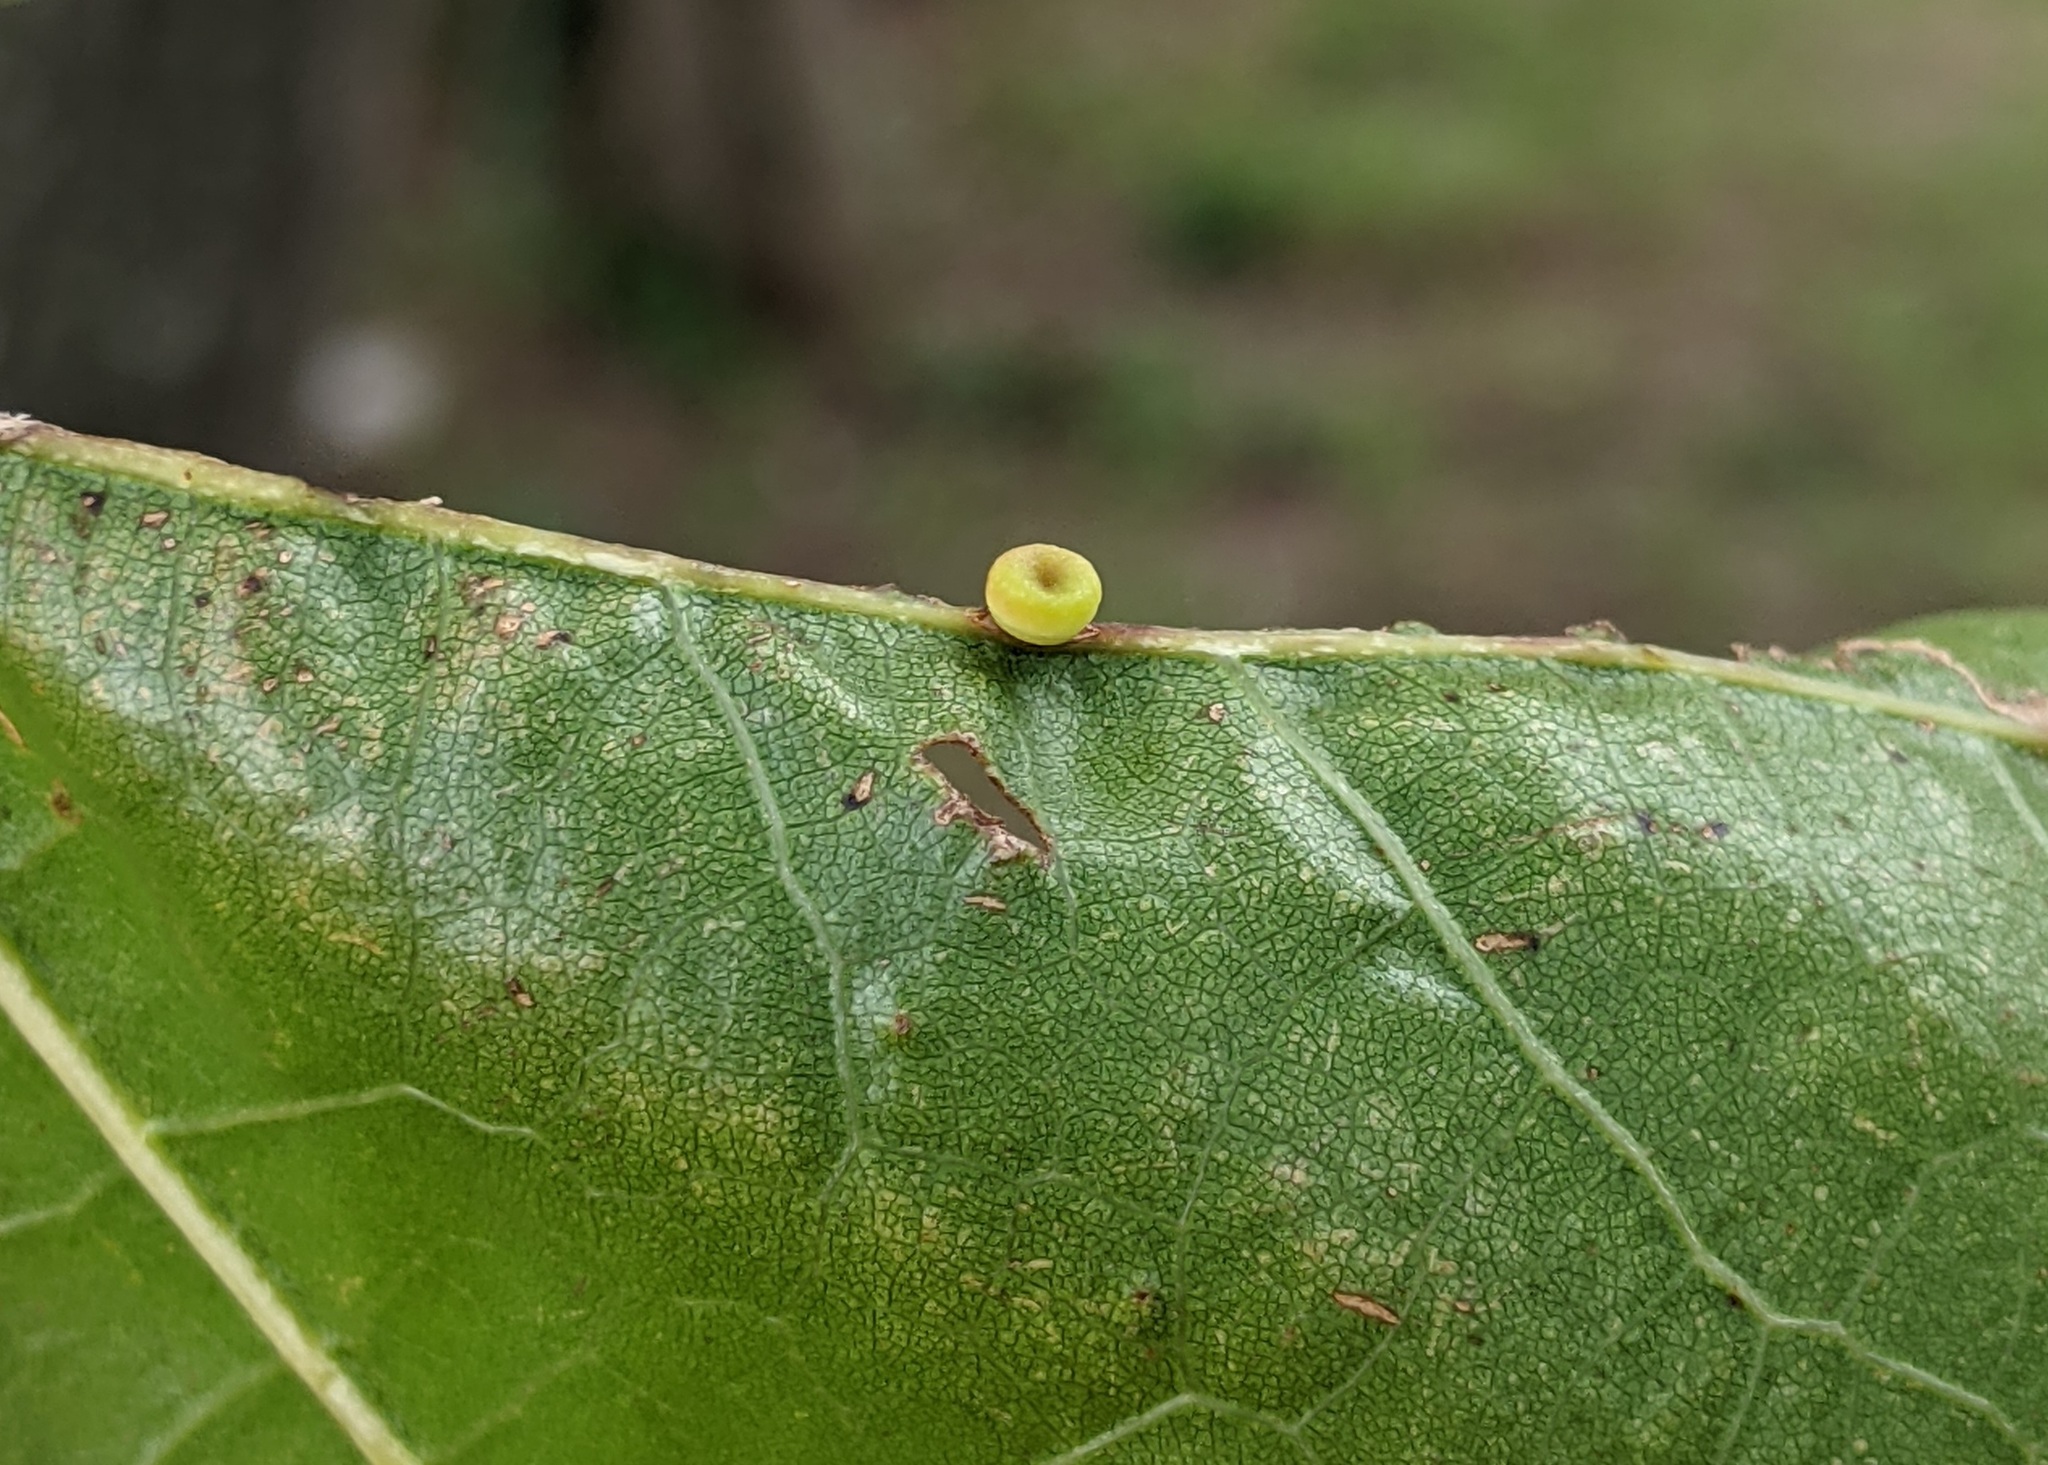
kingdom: Animalia
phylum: Arthropoda
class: Insecta
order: Hymenoptera
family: Cynipidae
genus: Kokkocynips
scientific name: Kokkocynips rileyi
